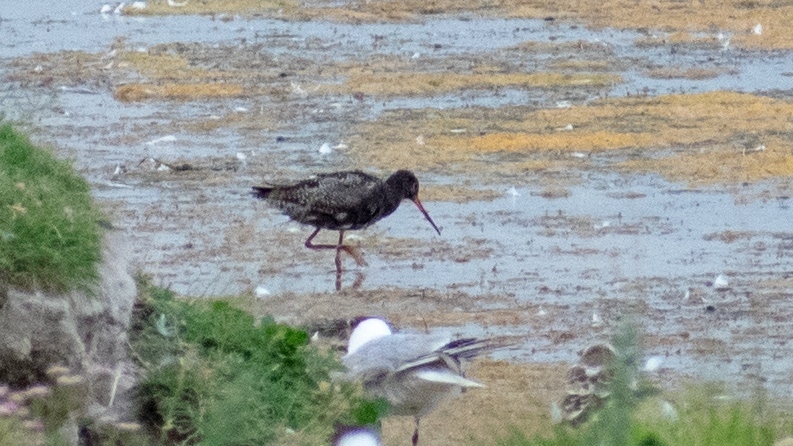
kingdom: Animalia
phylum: Chordata
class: Aves
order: Charadriiformes
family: Scolopacidae
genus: Tringa
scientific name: Tringa erythropus
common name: Spotted redshank
